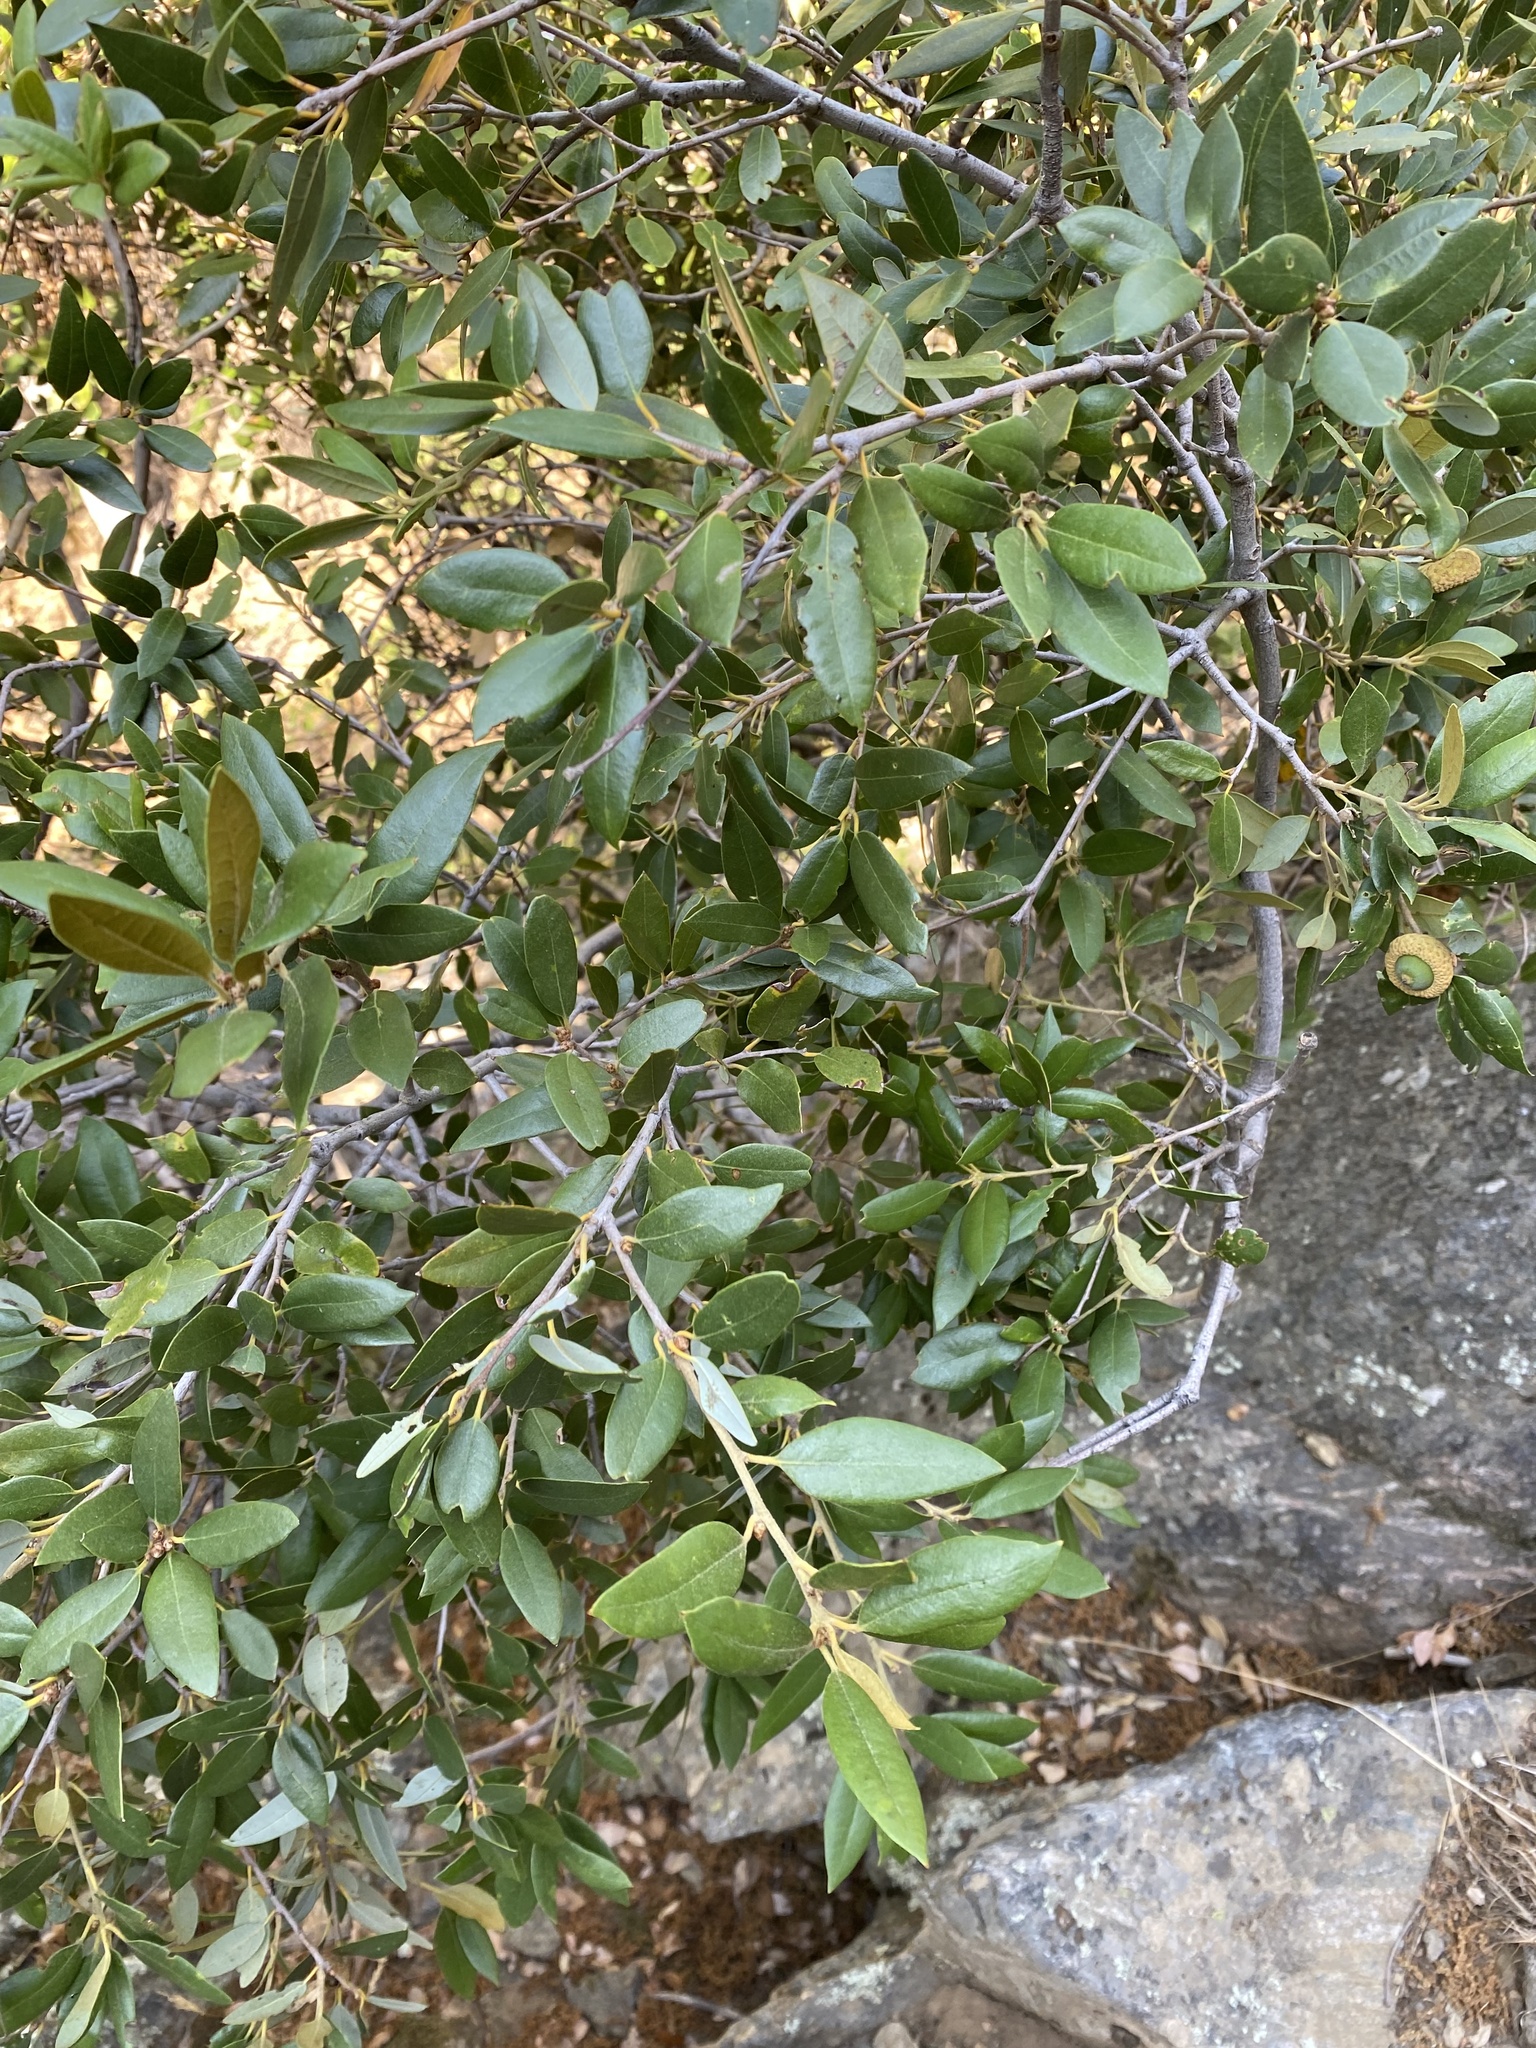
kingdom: Plantae
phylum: Tracheophyta
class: Magnoliopsida
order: Fagales
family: Fagaceae
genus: Quercus
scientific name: Quercus chrysolepis
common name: Canyon live oak
